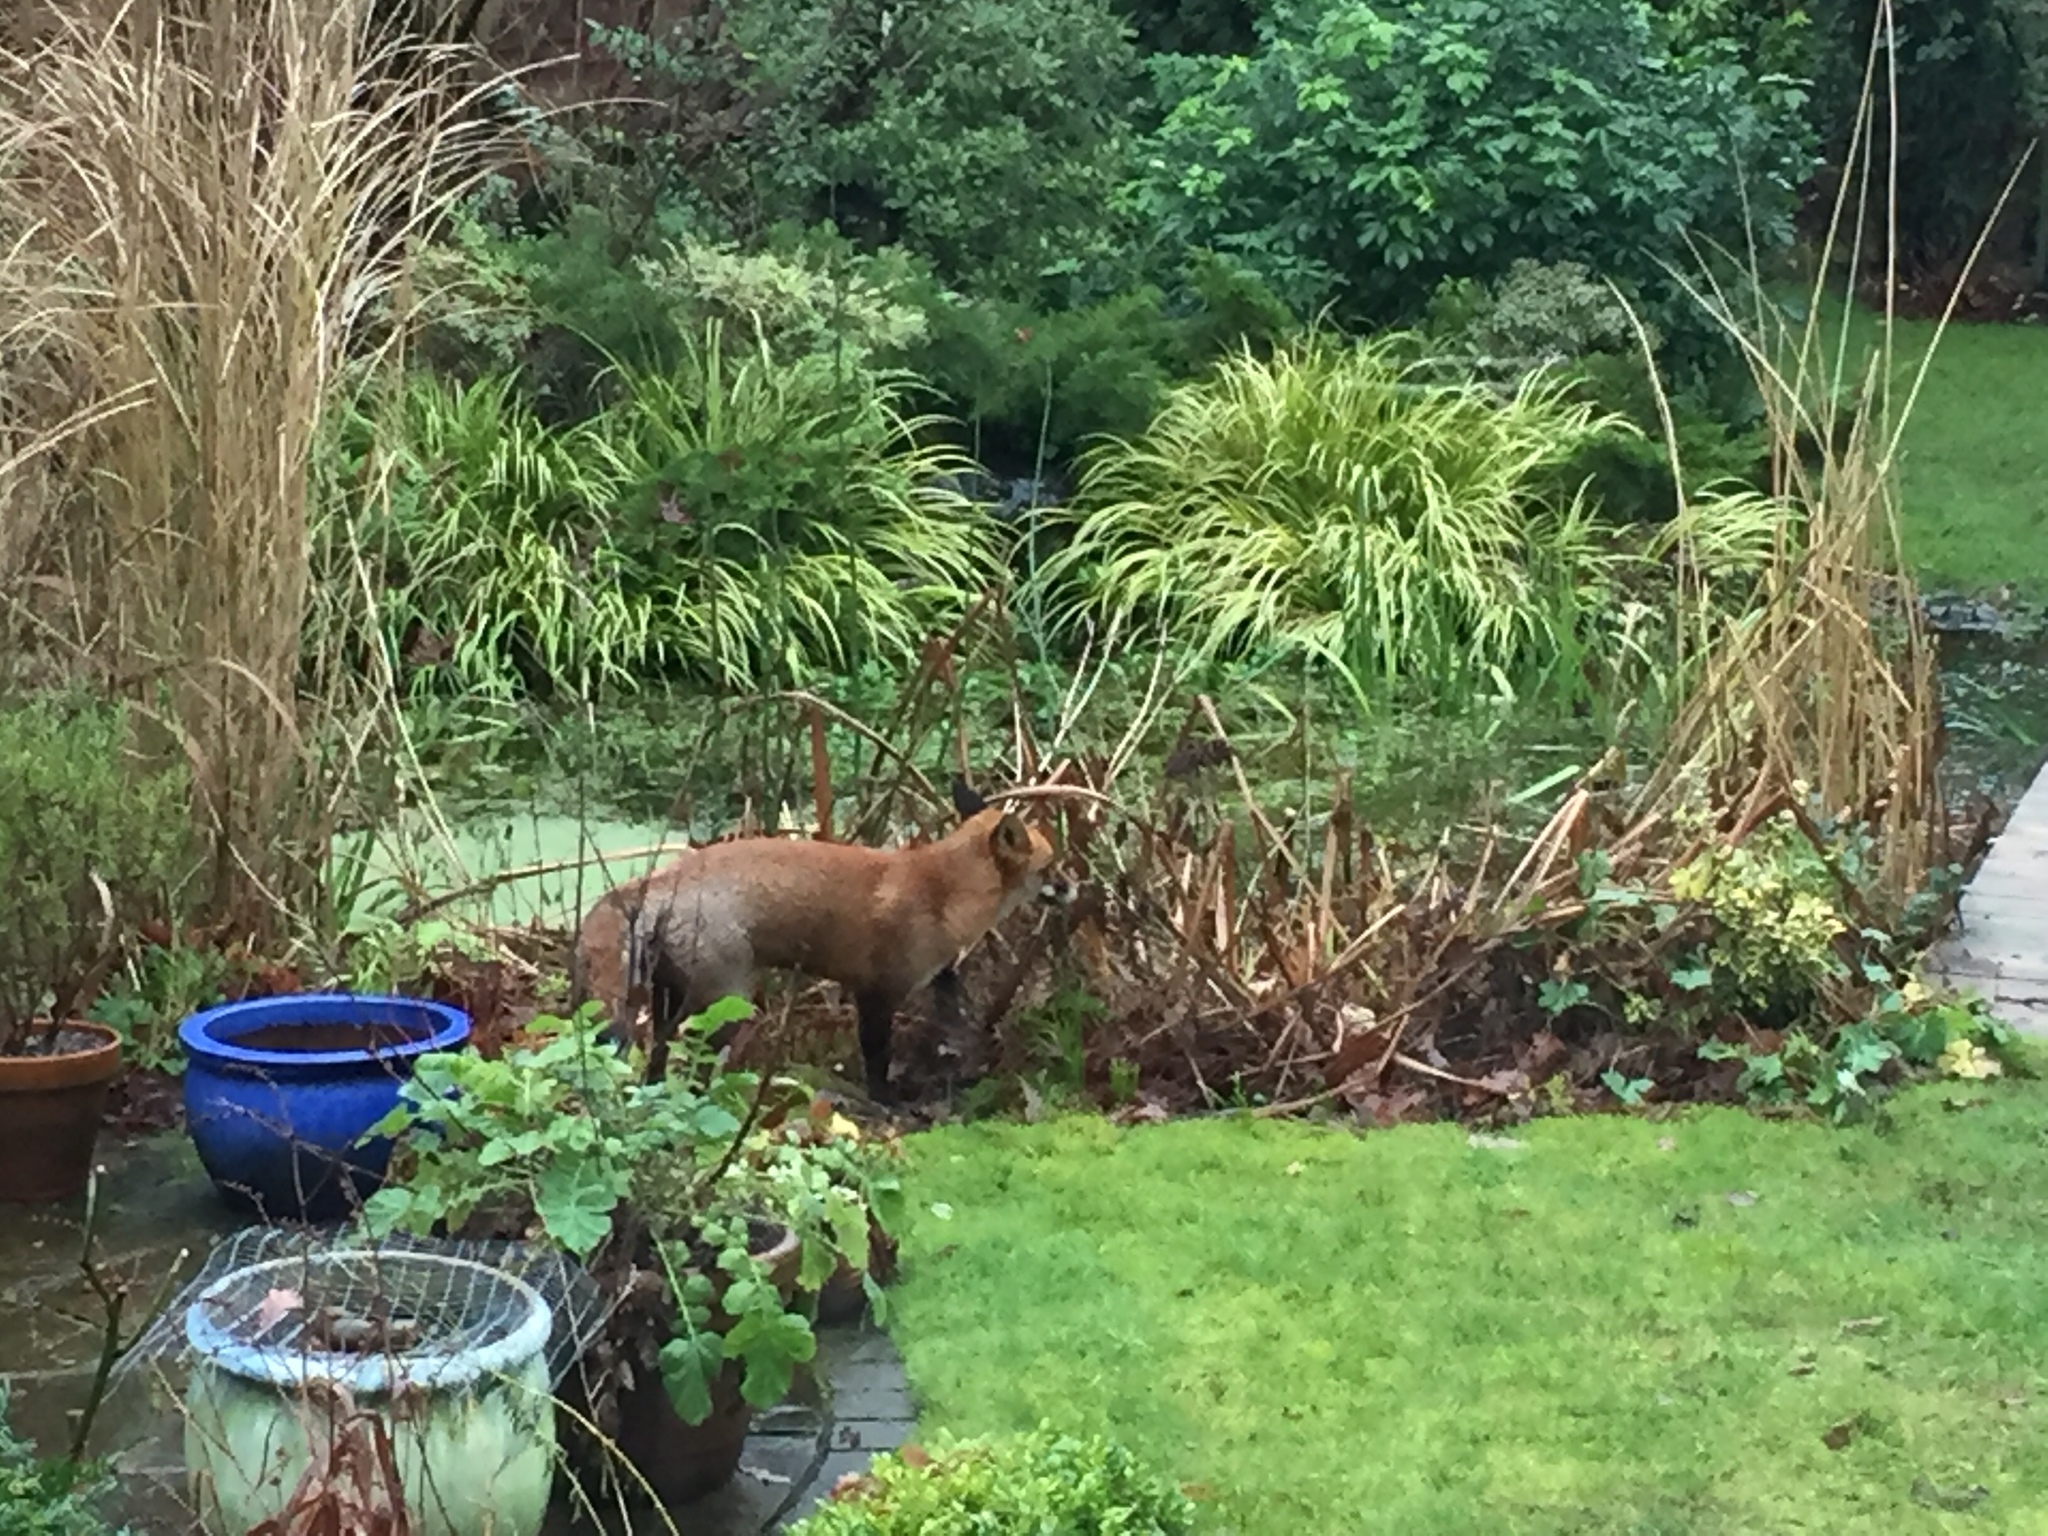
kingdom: Animalia
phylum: Chordata
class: Mammalia
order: Carnivora
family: Canidae
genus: Vulpes
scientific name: Vulpes vulpes
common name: Red fox
